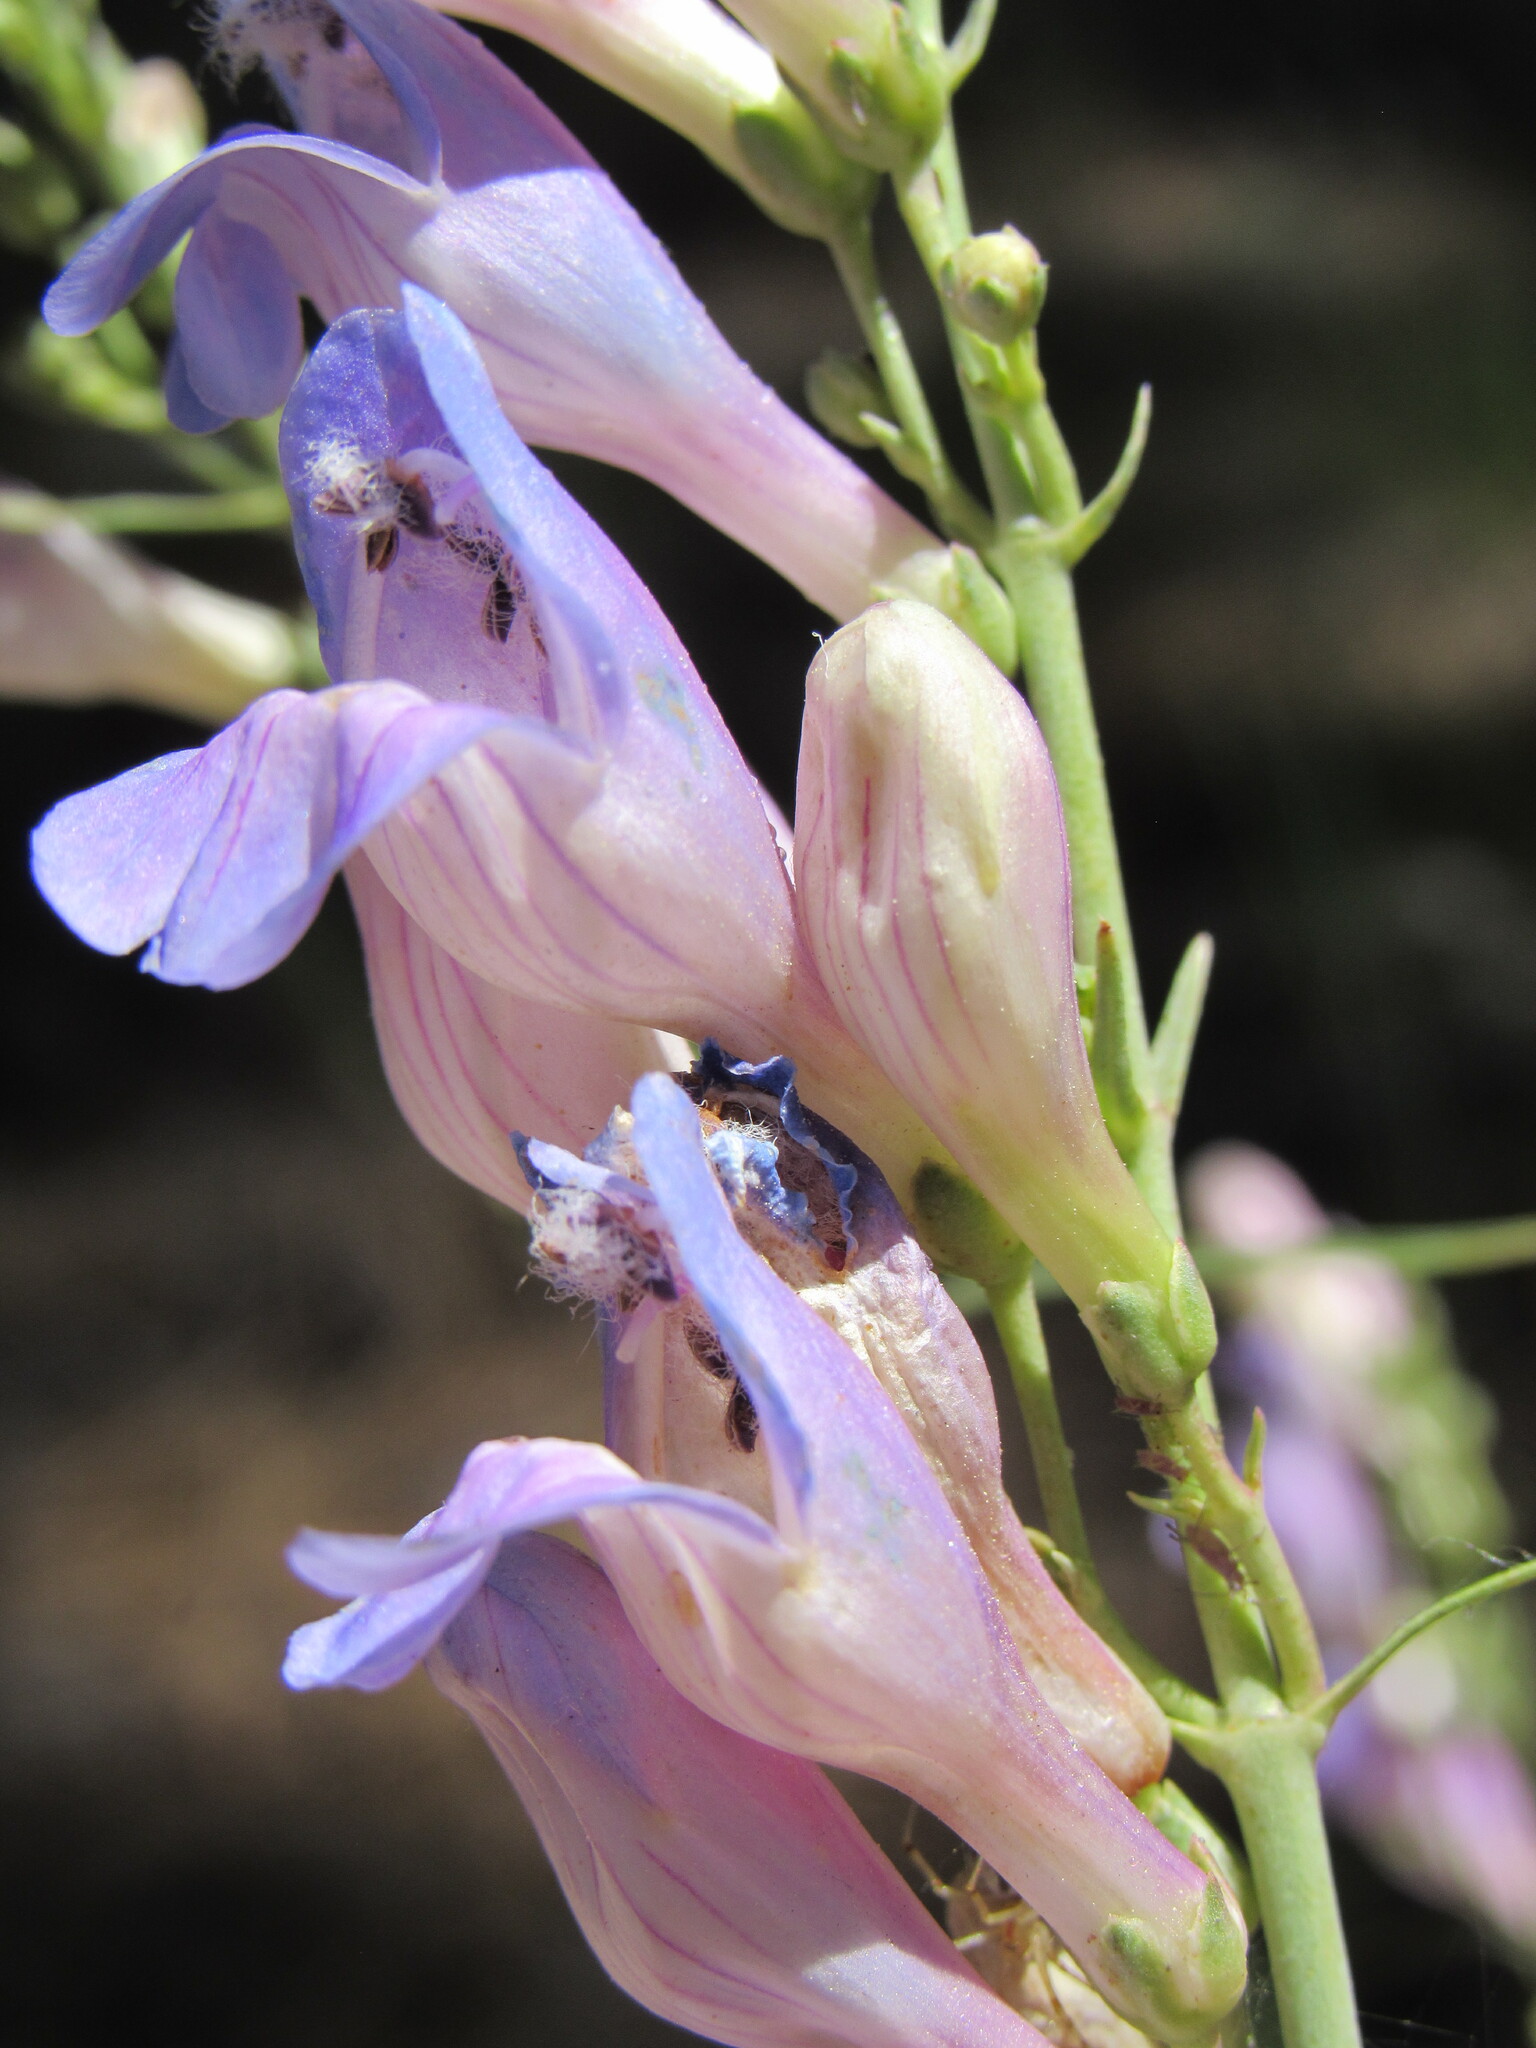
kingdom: Plantae
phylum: Tracheophyta
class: Magnoliopsida
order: Lamiales
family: Plantaginaceae
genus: Penstemon
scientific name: Penstemon comarrhenus
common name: Dusty penstemon
